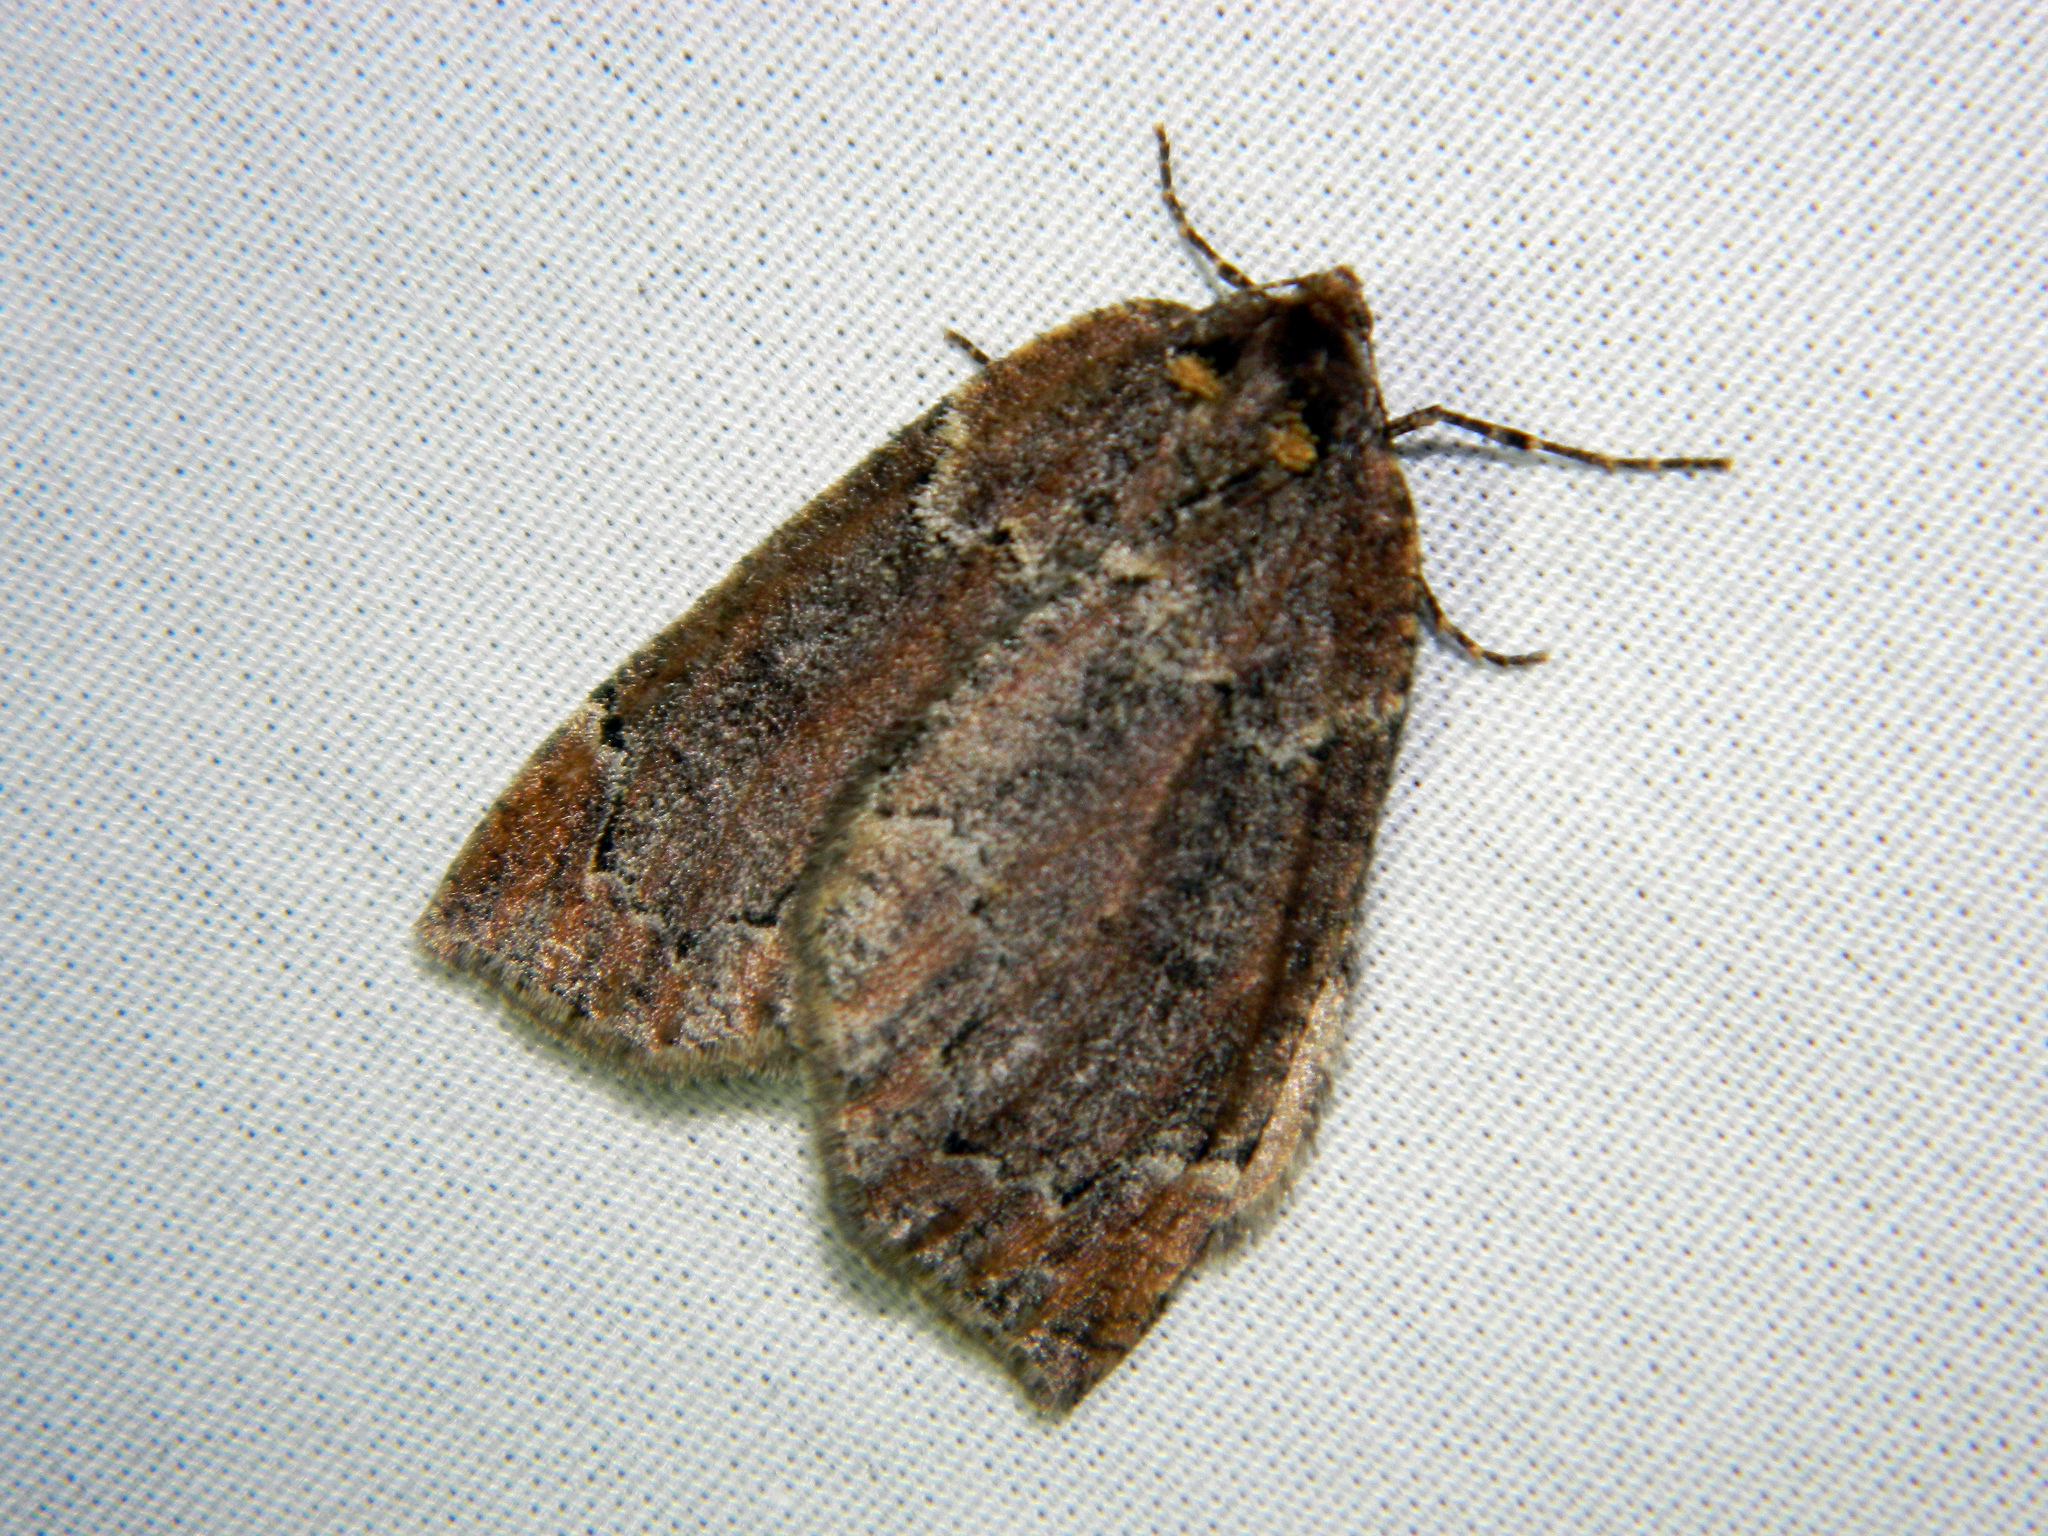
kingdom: Animalia
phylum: Arthropoda
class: Insecta
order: Lepidoptera
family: Geometridae
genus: Spodolepis
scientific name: Spodolepis substriataria
